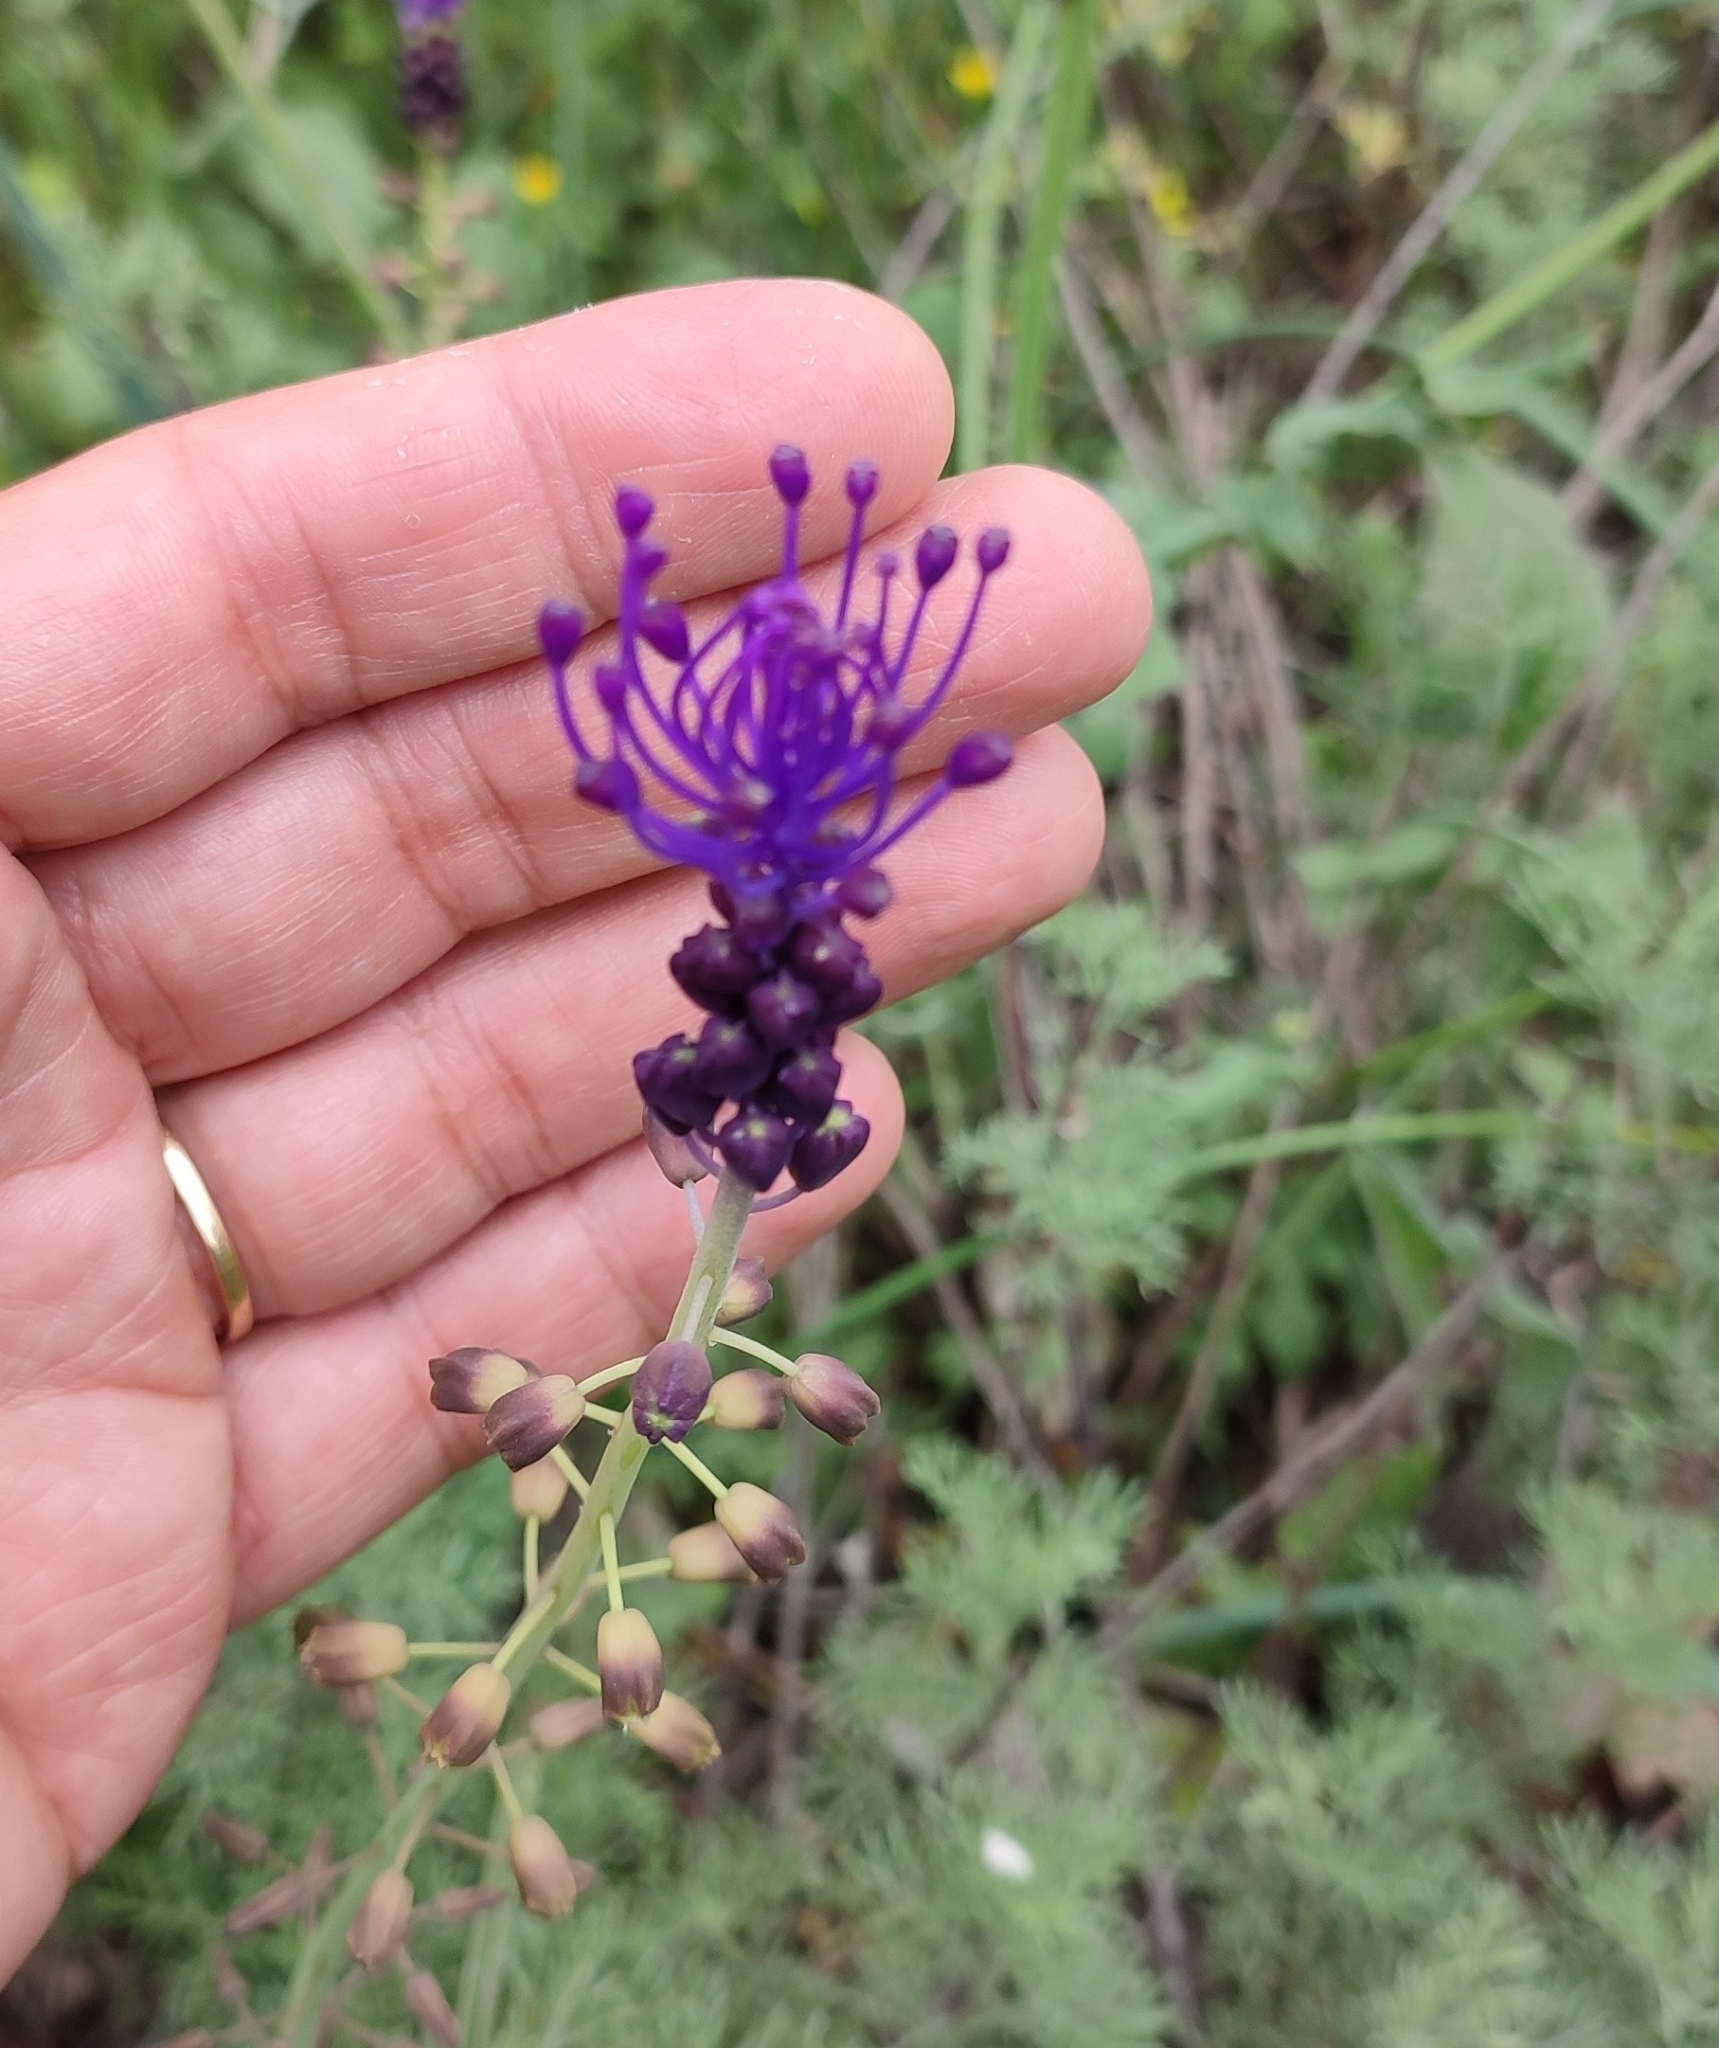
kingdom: Plantae
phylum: Tracheophyta
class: Liliopsida
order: Asparagales
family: Asparagaceae
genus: Muscari
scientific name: Muscari comosum
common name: Tassel hyacinth
